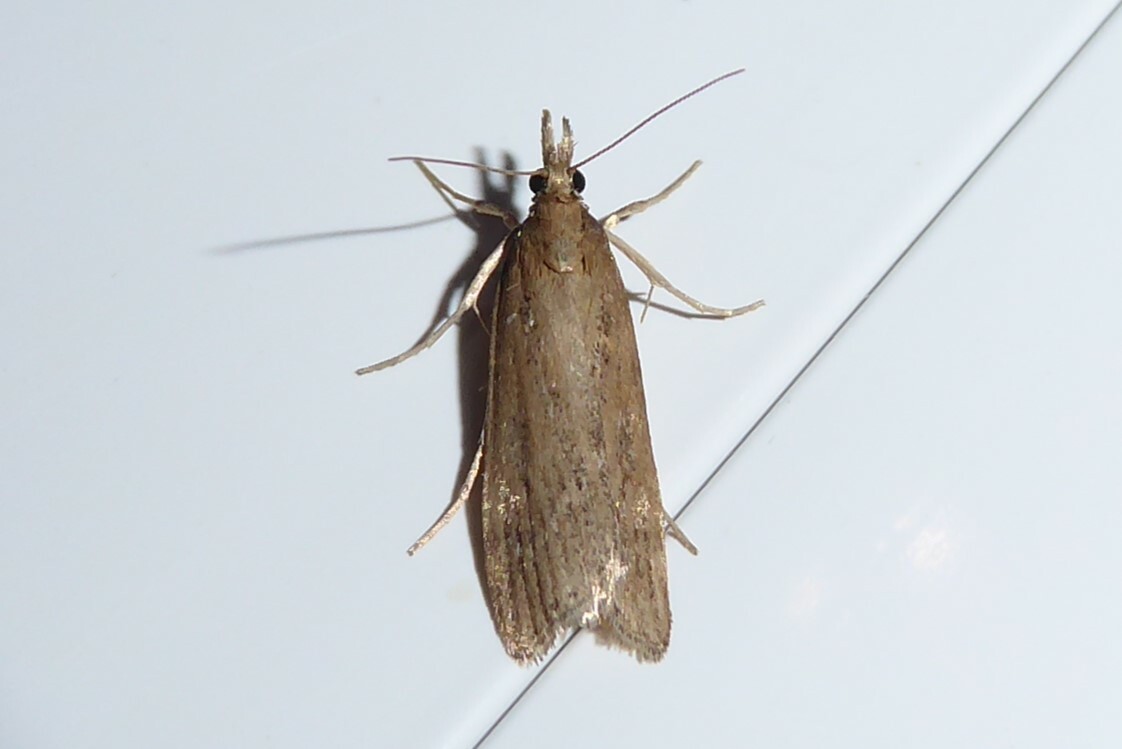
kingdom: Animalia
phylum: Arthropoda
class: Insecta
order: Lepidoptera
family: Crambidae
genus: Eudonia
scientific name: Eudonia octophora
